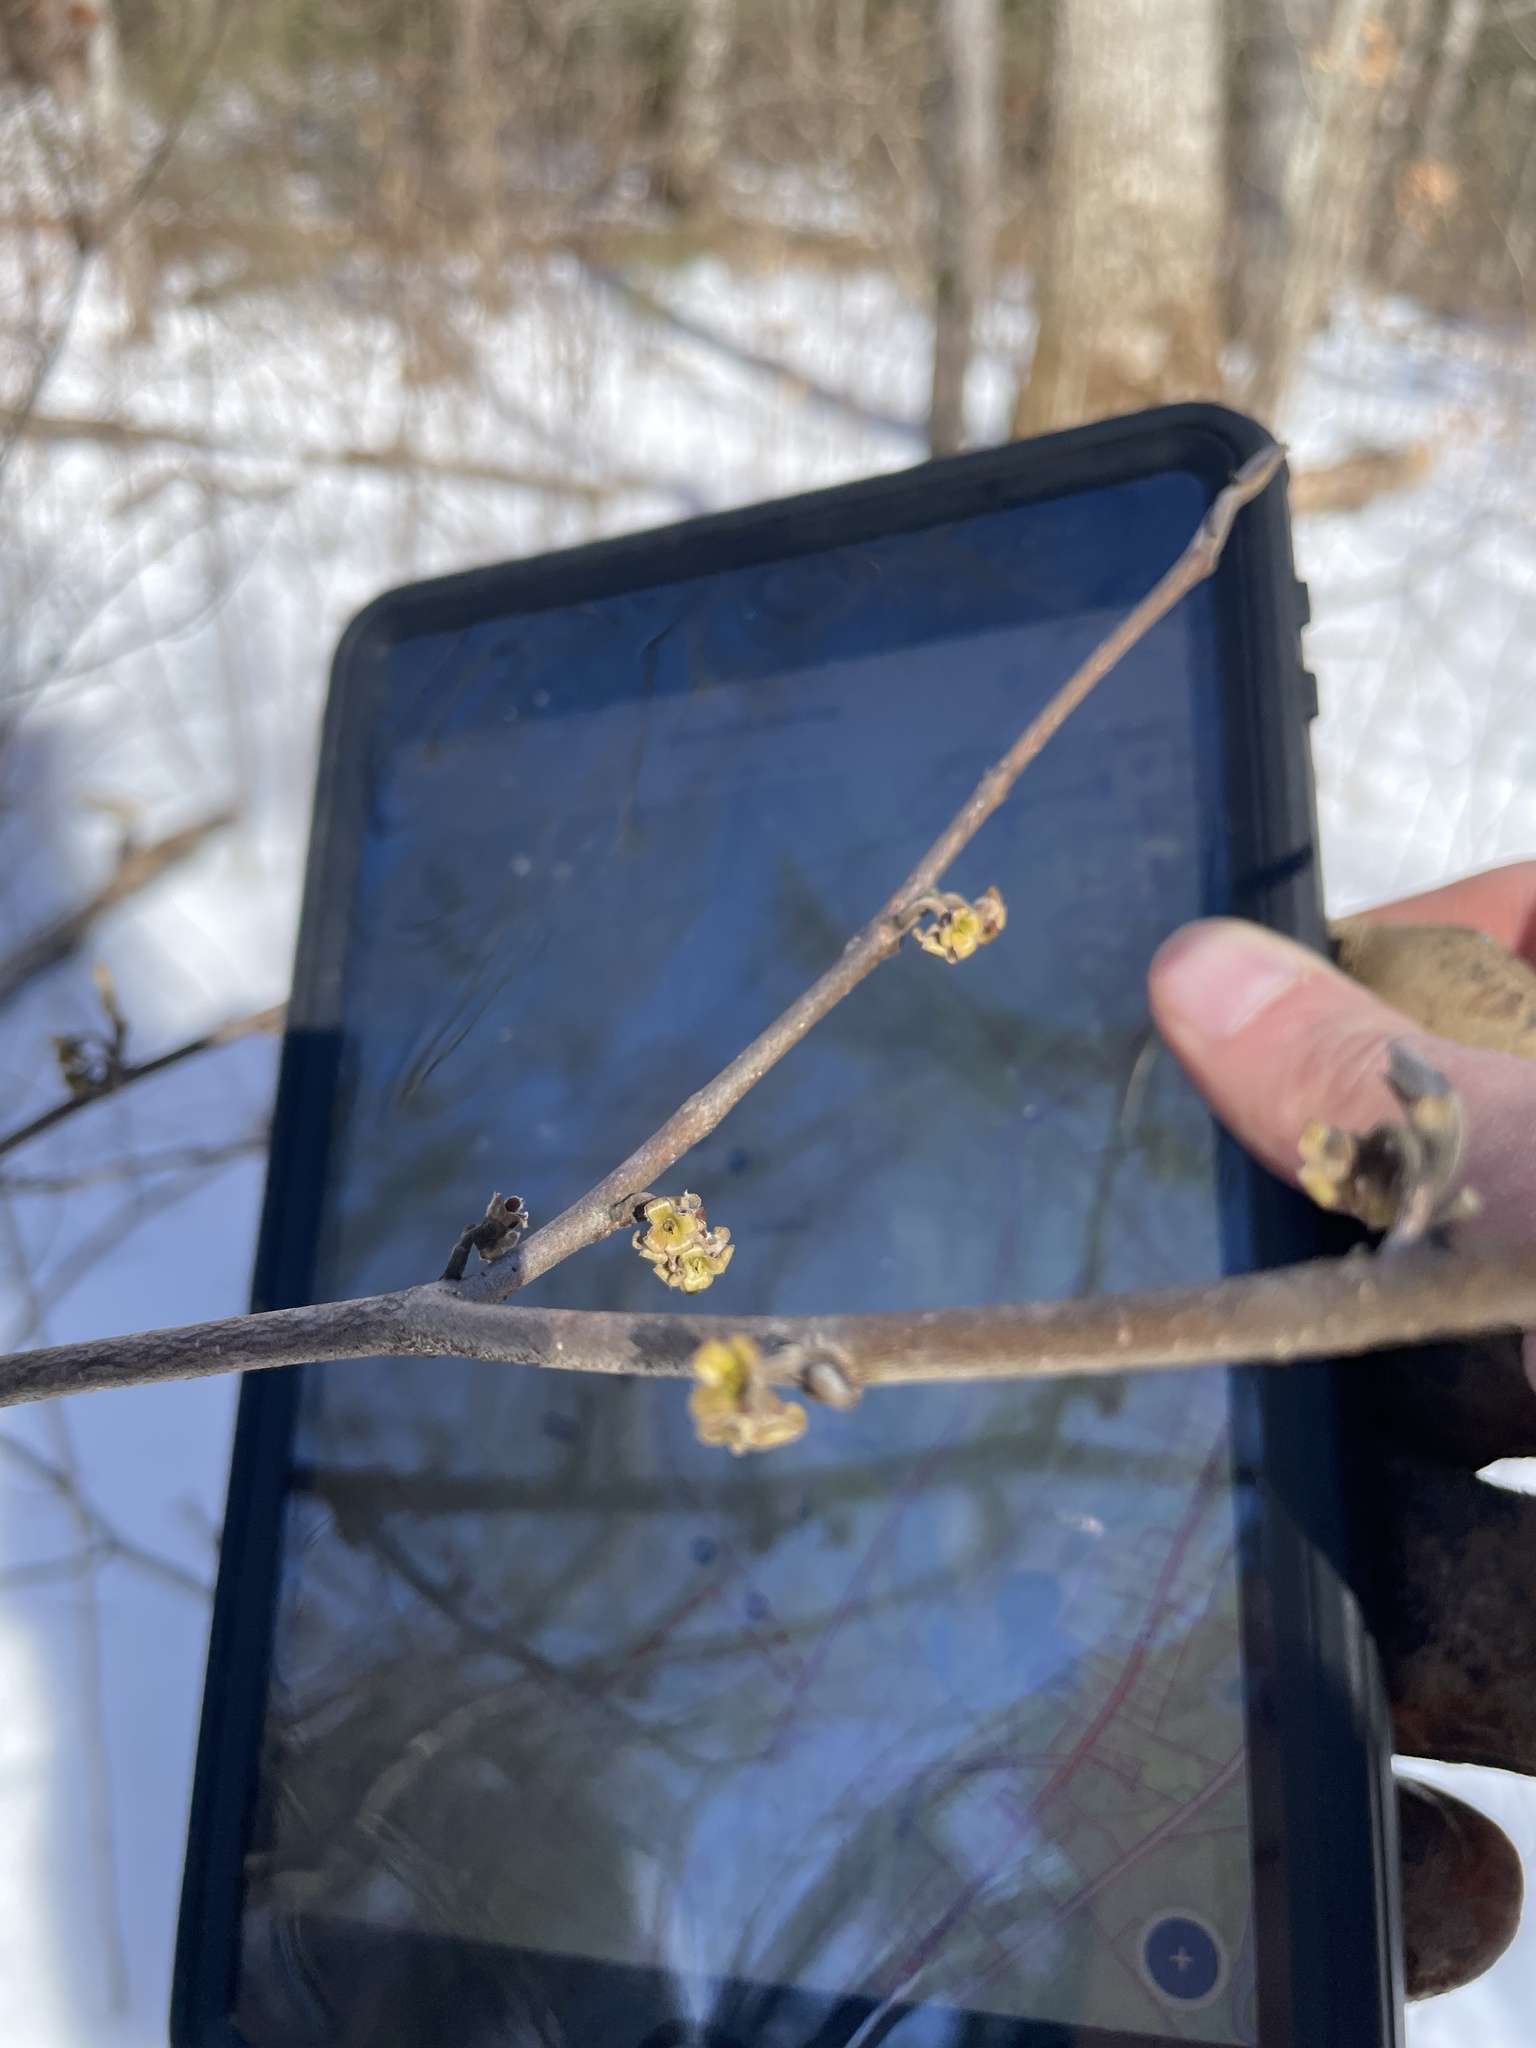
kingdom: Plantae
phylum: Tracheophyta
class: Magnoliopsida
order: Saxifragales
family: Hamamelidaceae
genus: Hamamelis
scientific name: Hamamelis virginiana
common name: Witch-hazel
